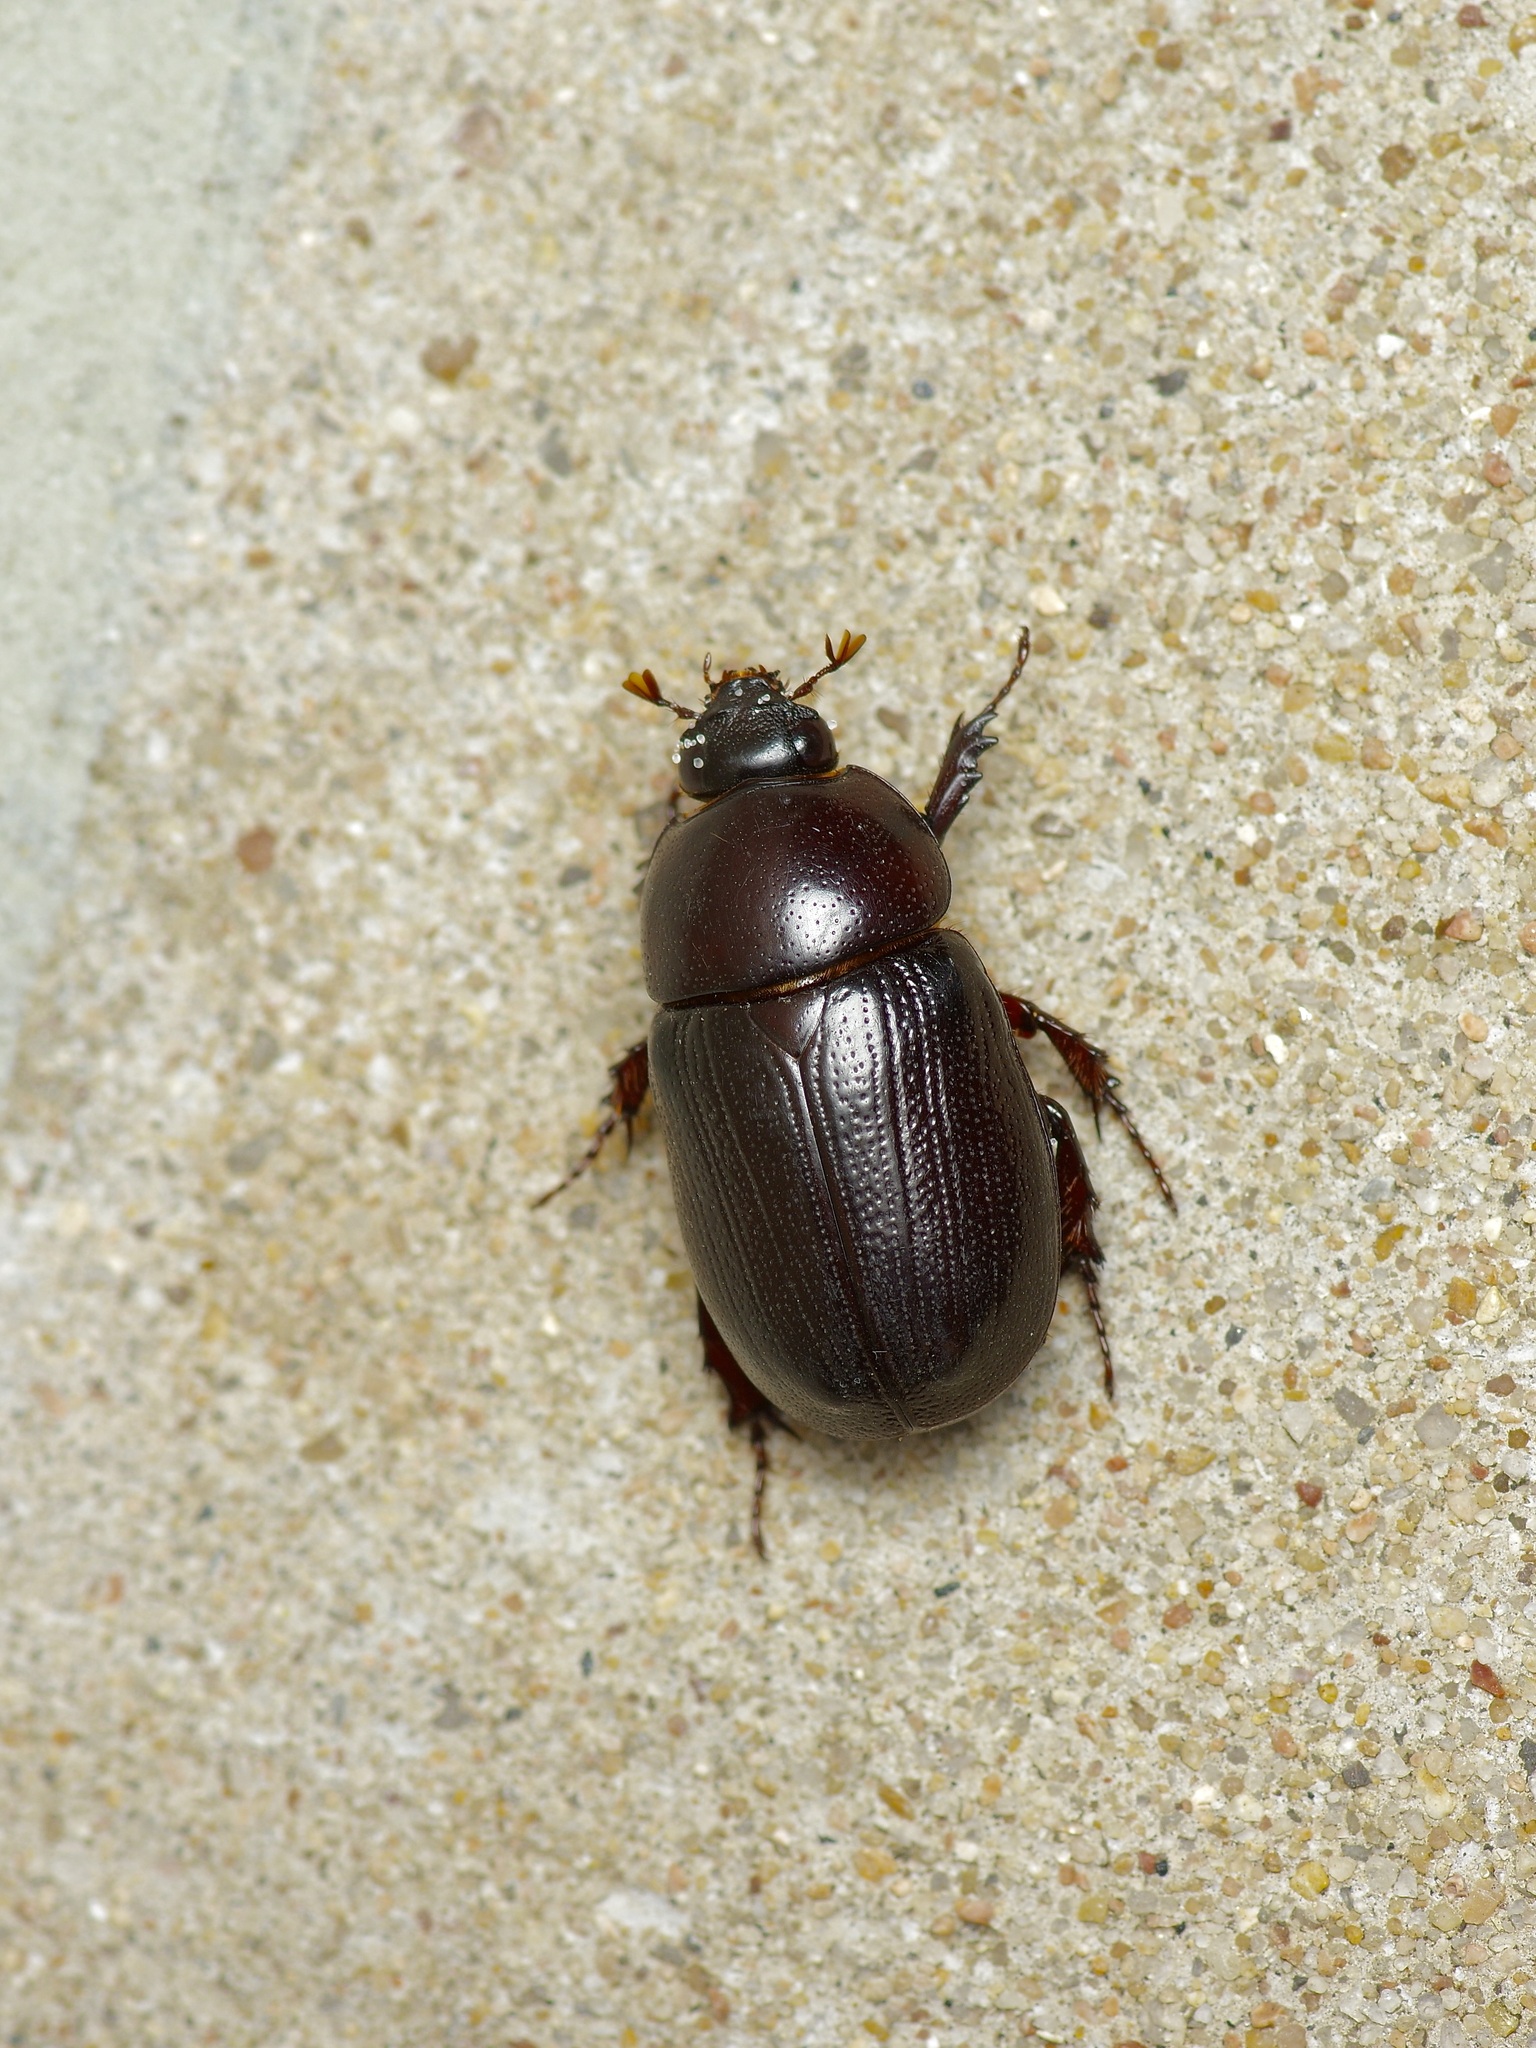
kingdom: Animalia
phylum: Arthropoda
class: Insecta
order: Coleoptera
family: Scarabaeidae
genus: Euetheola
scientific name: Euetheola humilis
